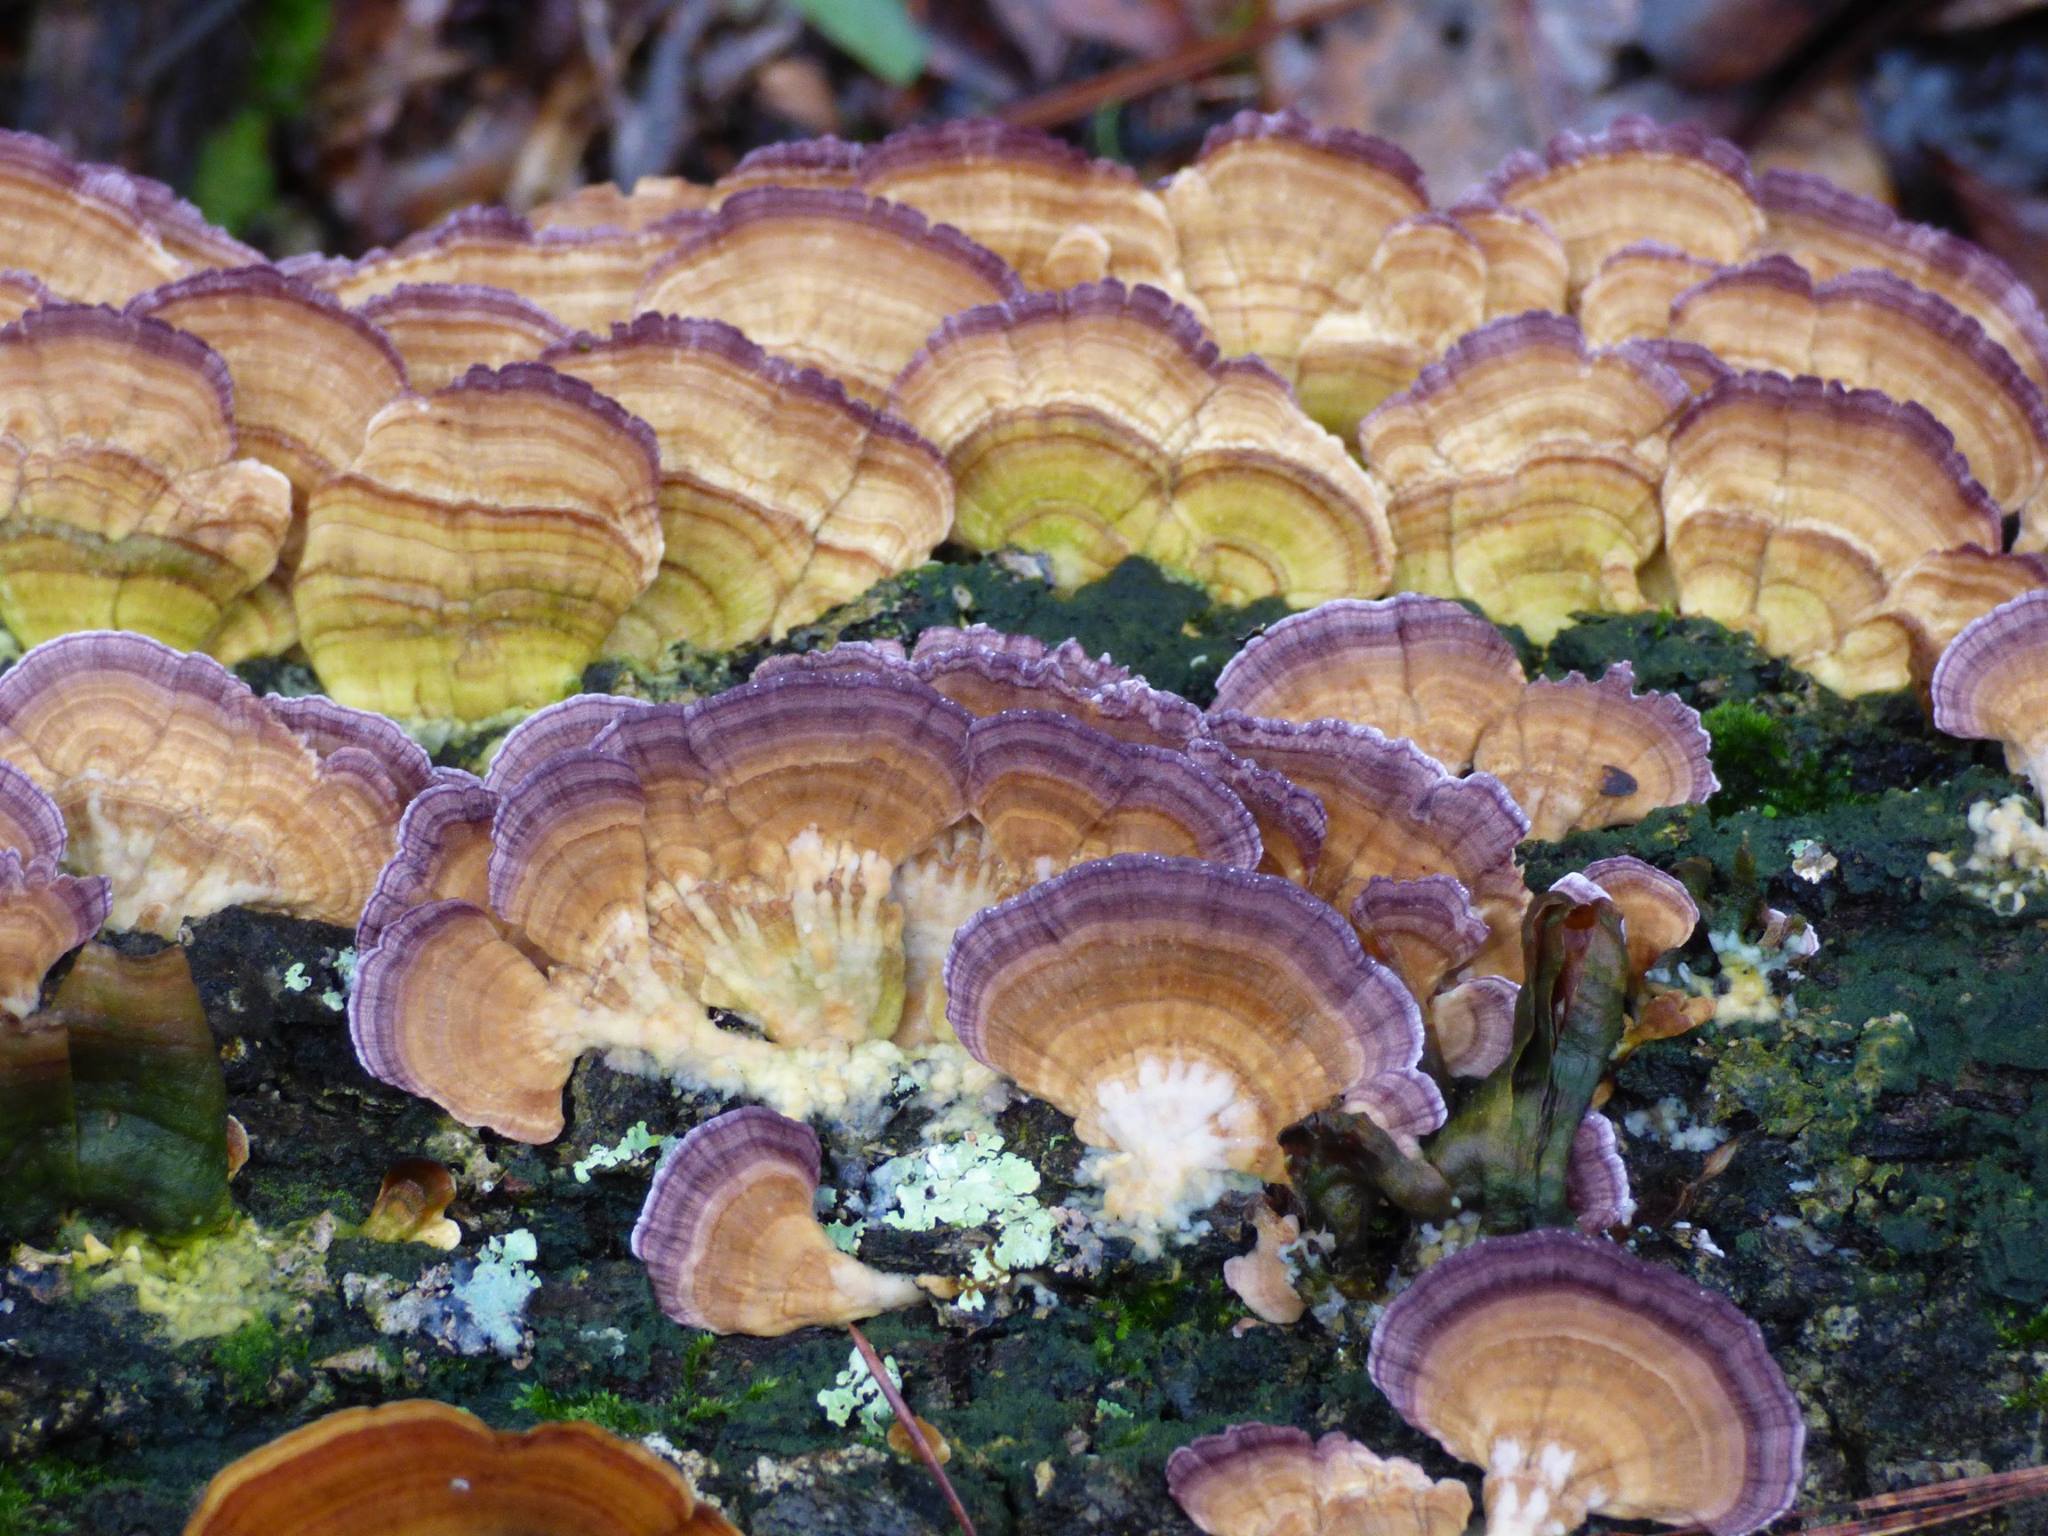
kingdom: Fungi
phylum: Basidiomycota
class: Agaricomycetes
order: Hymenochaetales
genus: Trichaptum
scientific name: Trichaptum biforme
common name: Violet-toothed polypore
